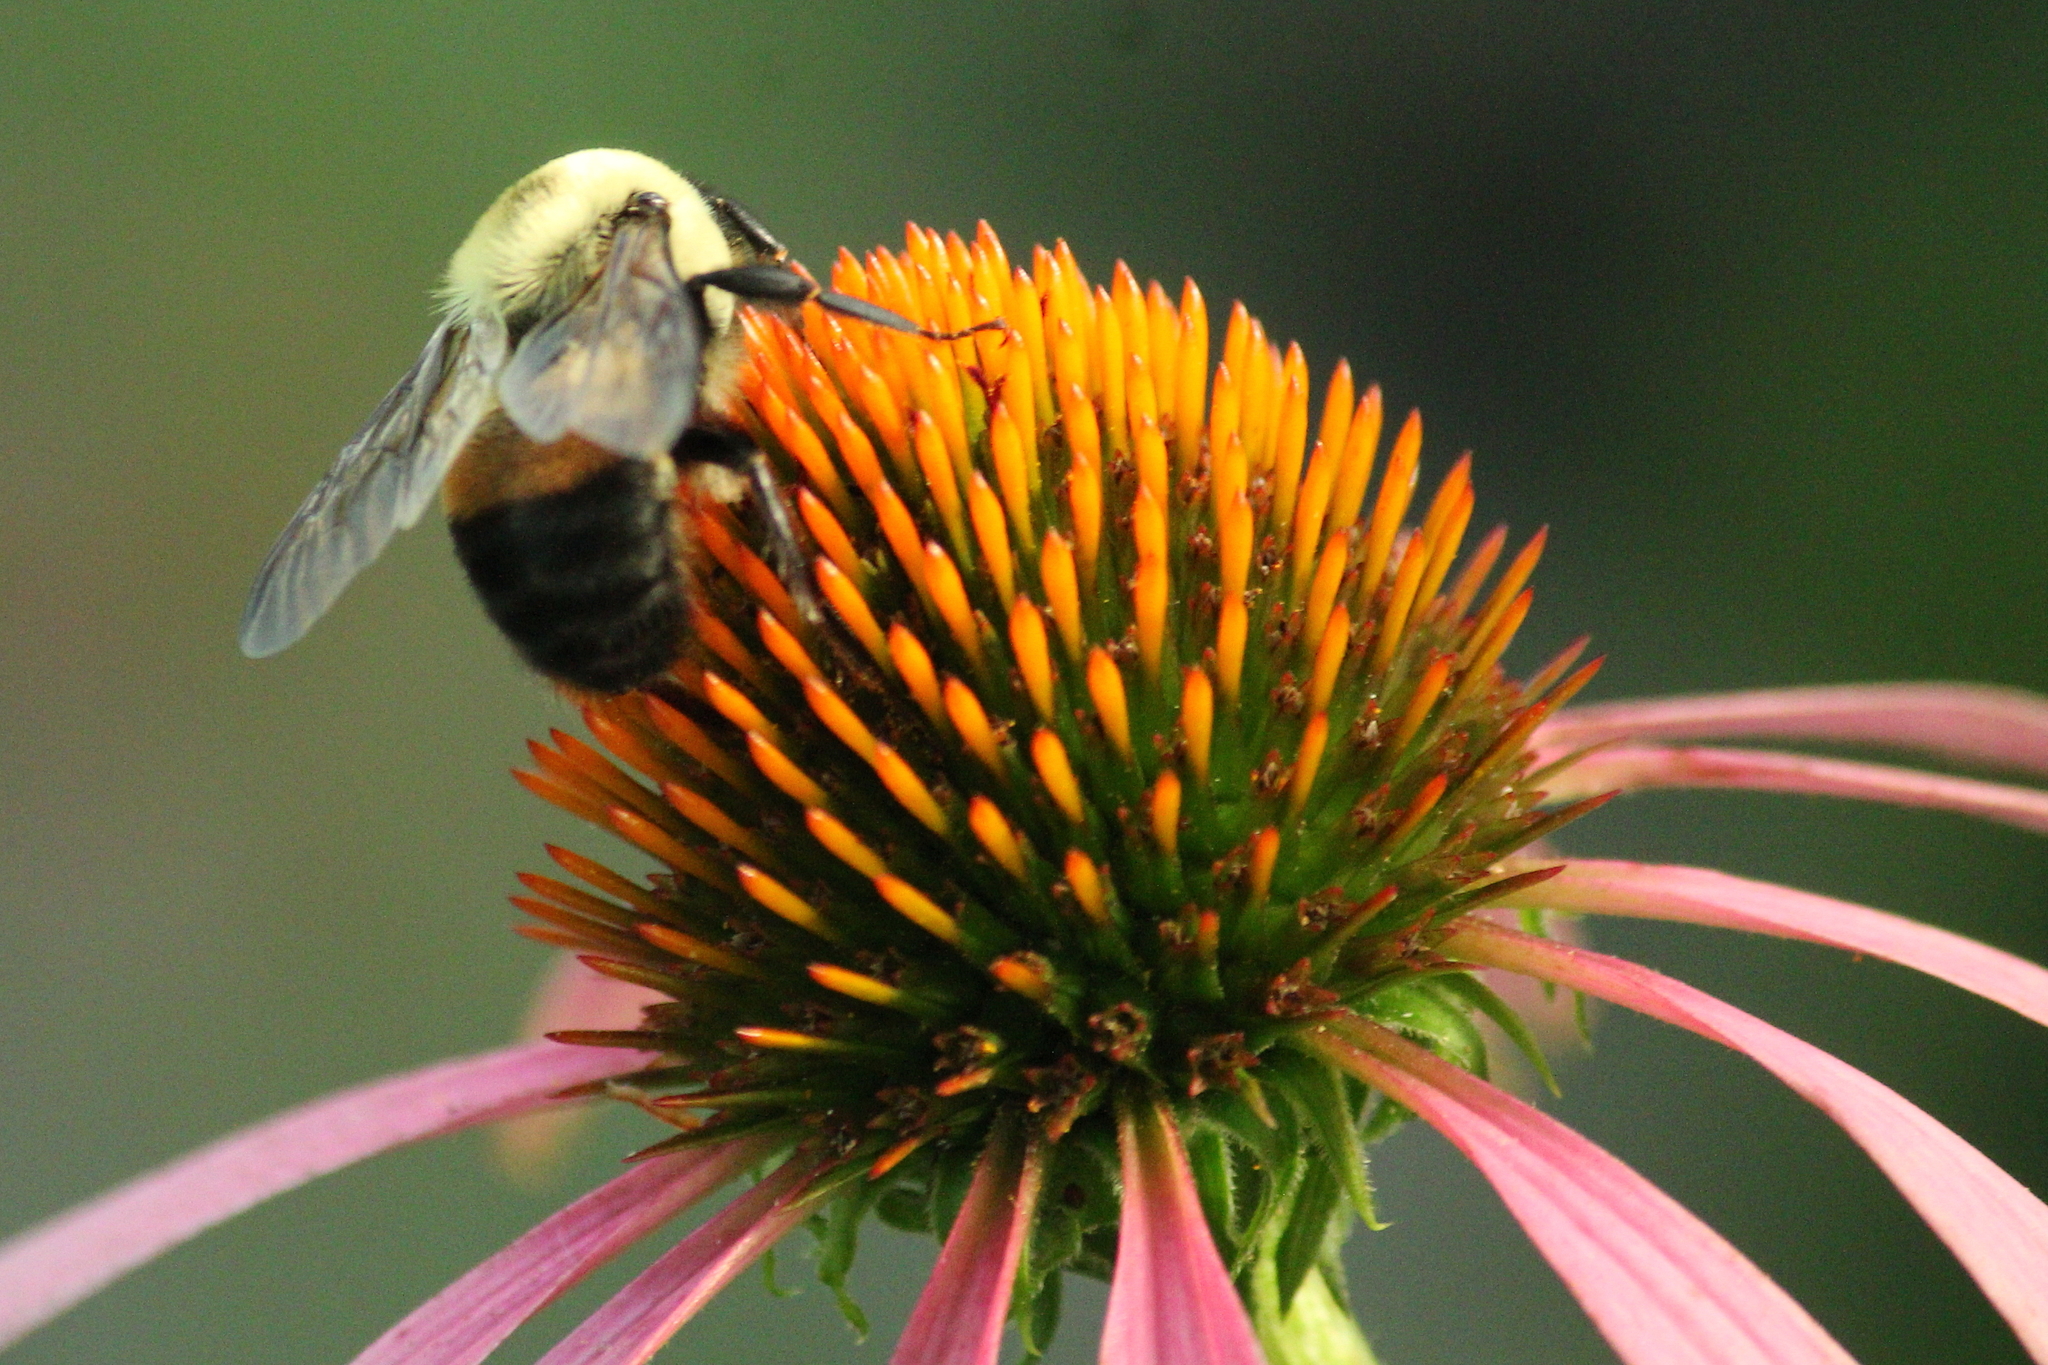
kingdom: Animalia
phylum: Arthropoda
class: Insecta
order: Hymenoptera
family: Apidae
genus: Bombus
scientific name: Bombus griseocollis
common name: Brown-belted bumble bee
